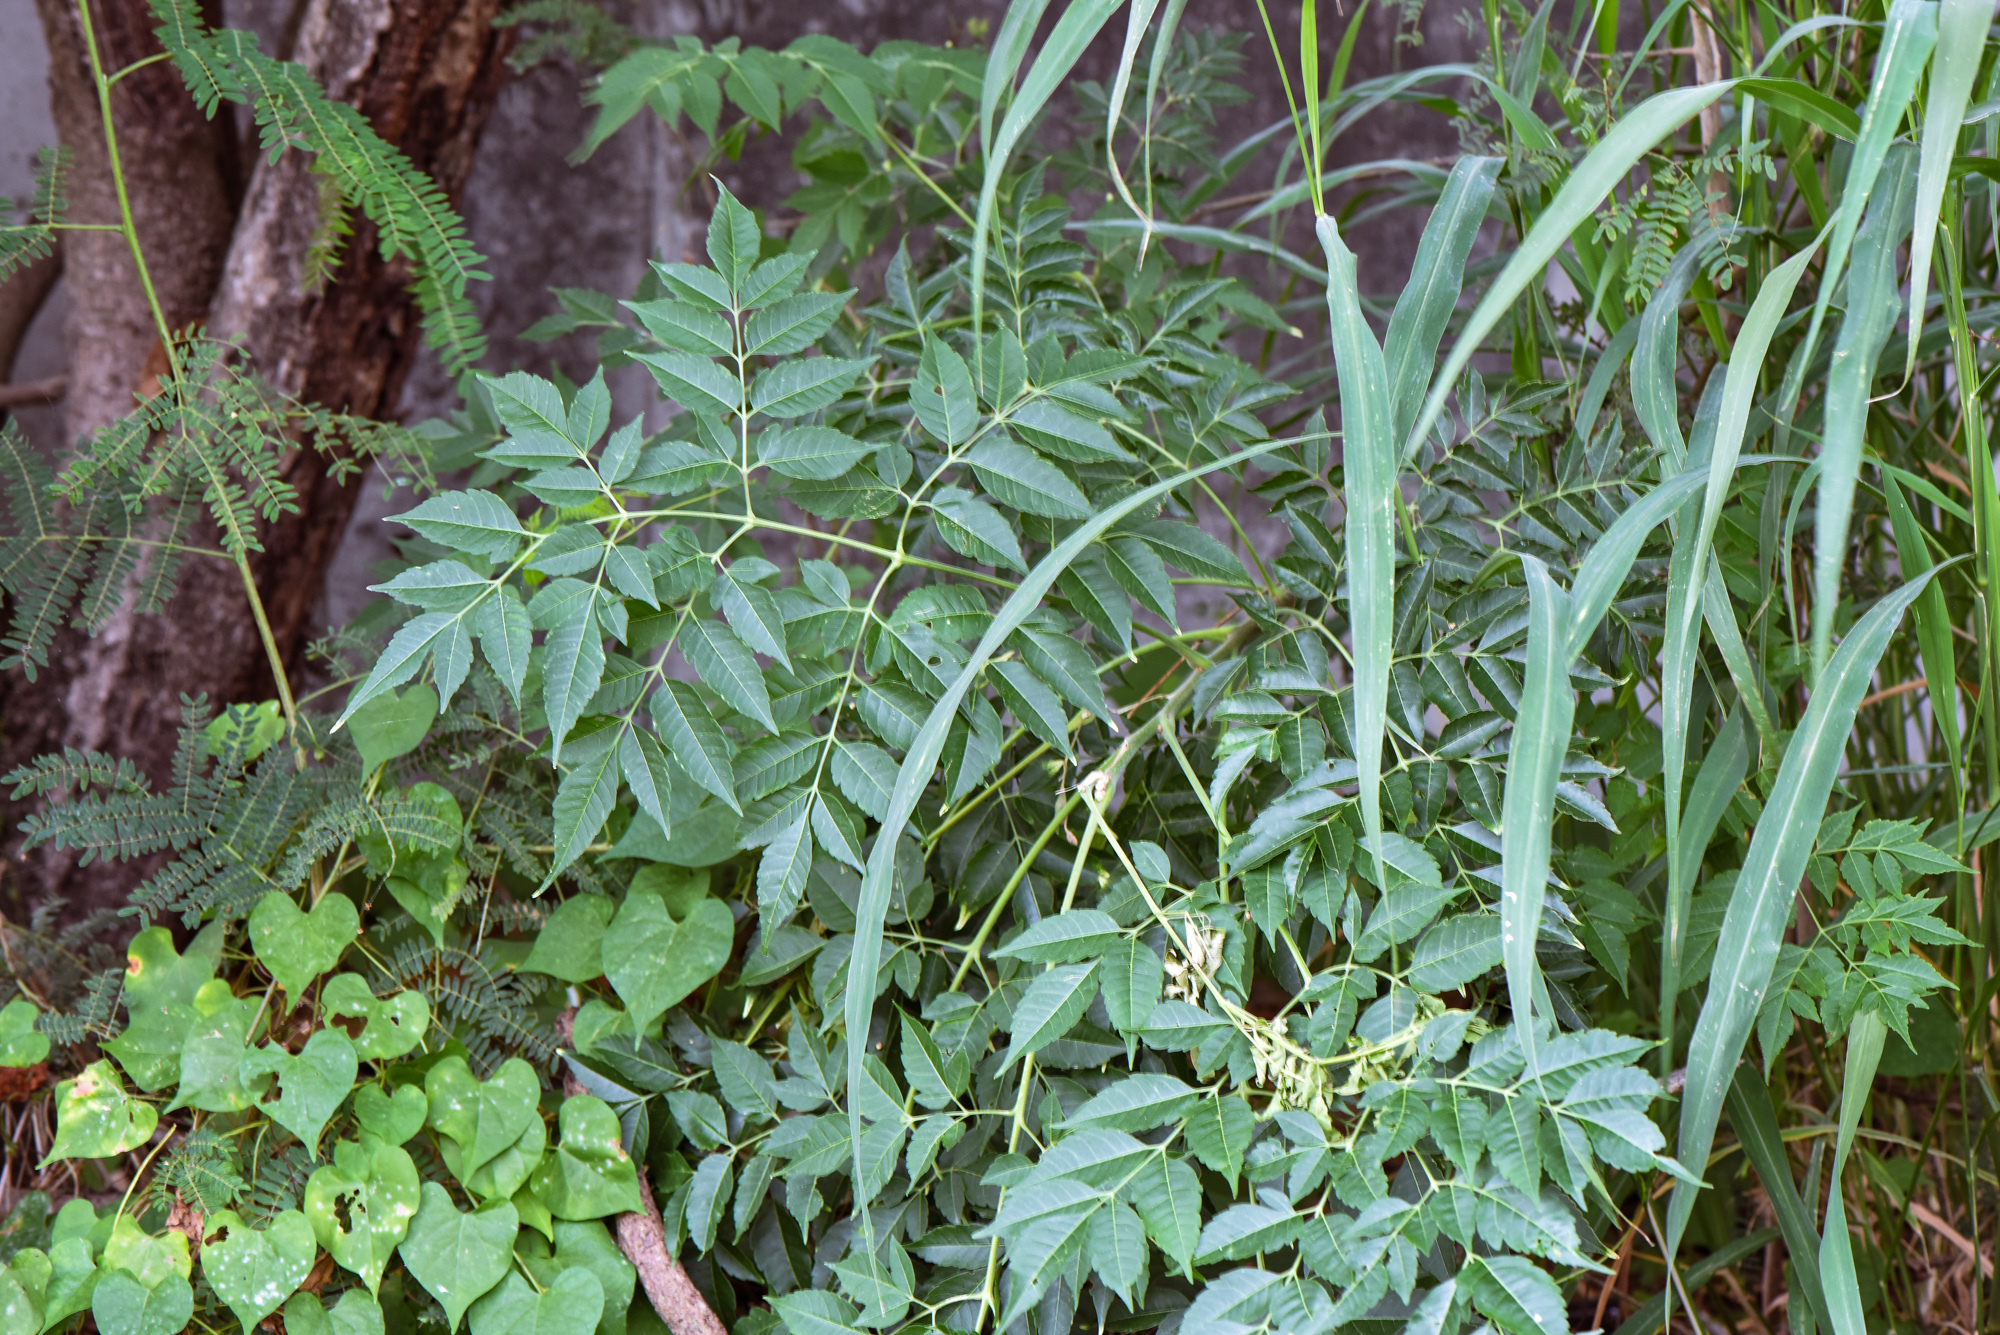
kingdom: Plantae
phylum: Tracheophyta
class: Magnoliopsida
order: Sapindales
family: Meliaceae
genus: Melia
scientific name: Melia azedarach
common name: Chinaberrytree
